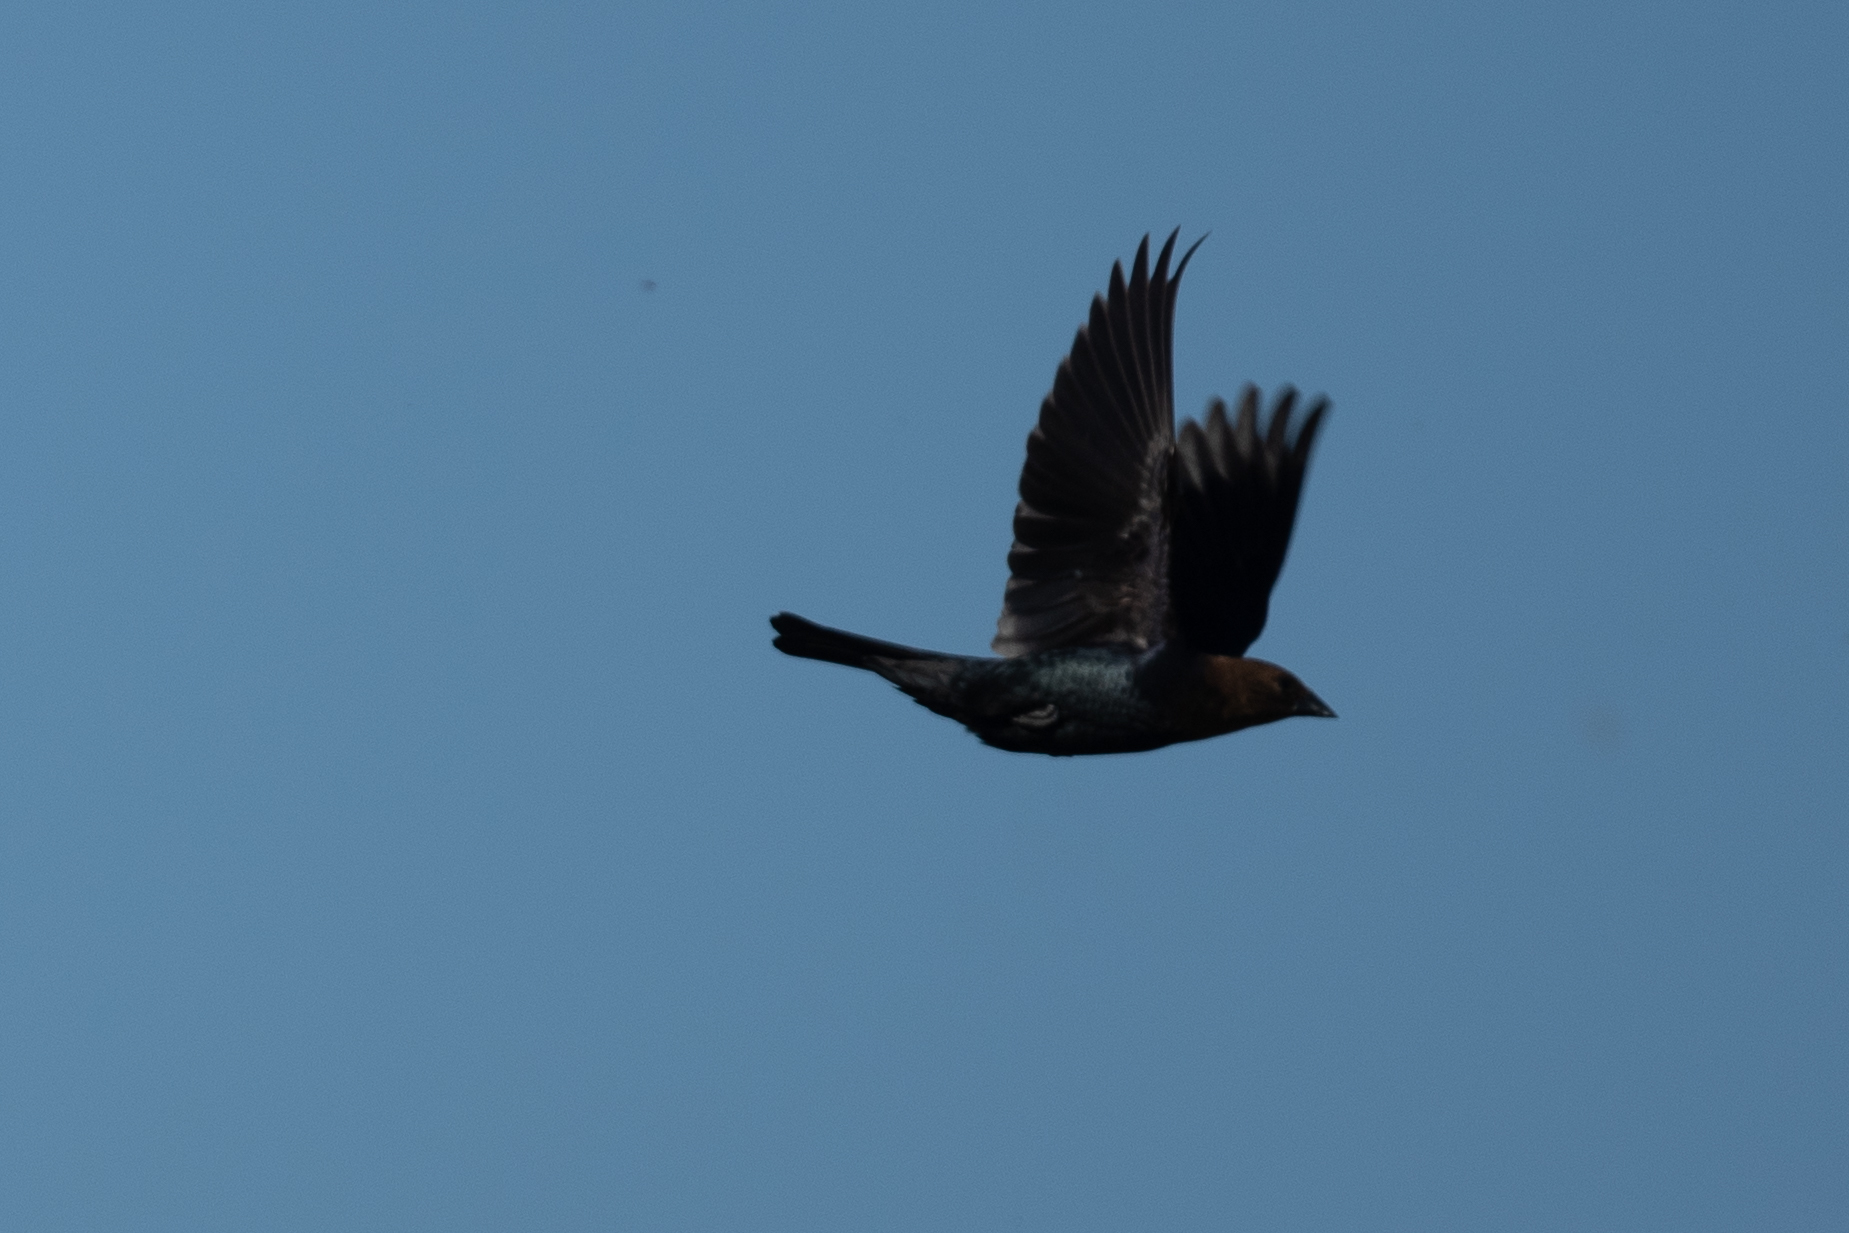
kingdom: Animalia
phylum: Chordata
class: Aves
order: Passeriformes
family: Icteridae
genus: Molothrus
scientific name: Molothrus ater
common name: Brown-headed cowbird
